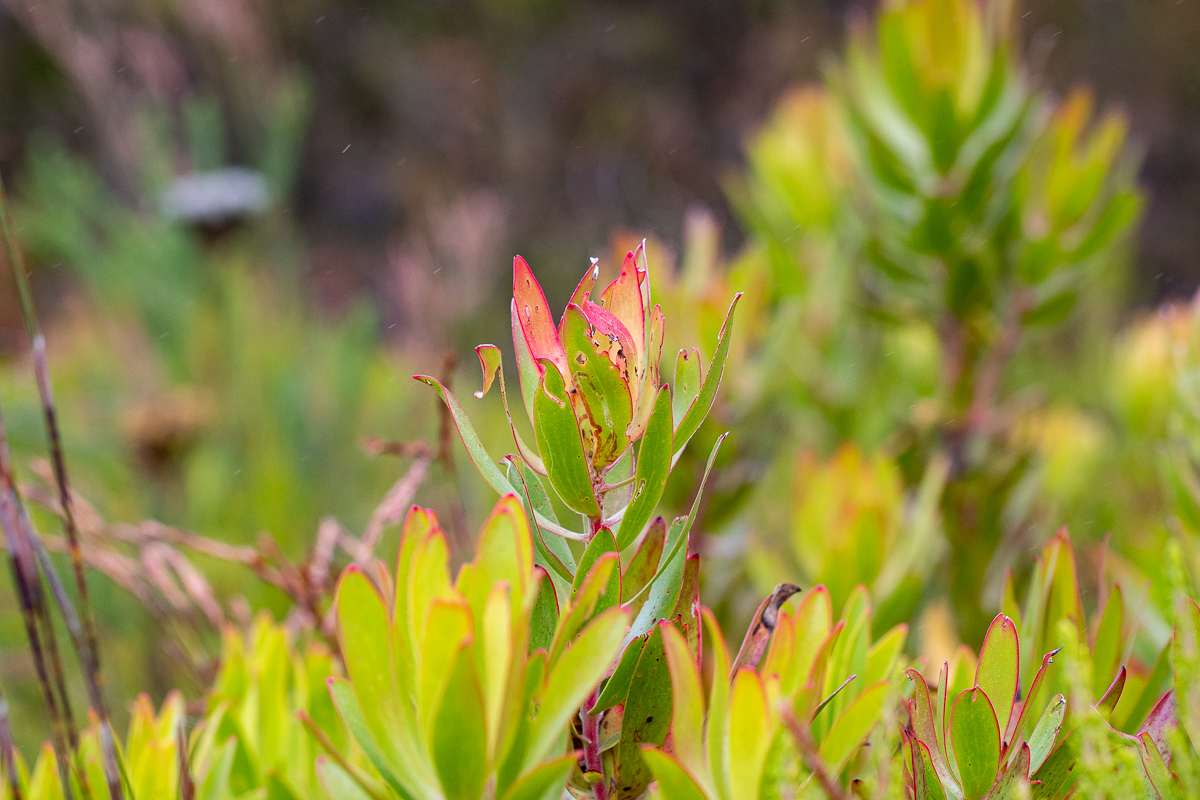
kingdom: Plantae
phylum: Tracheophyta
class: Magnoliopsida
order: Proteales
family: Proteaceae
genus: Leucadendron
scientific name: Leucadendron gandogeri
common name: Broad-leaf conebush
